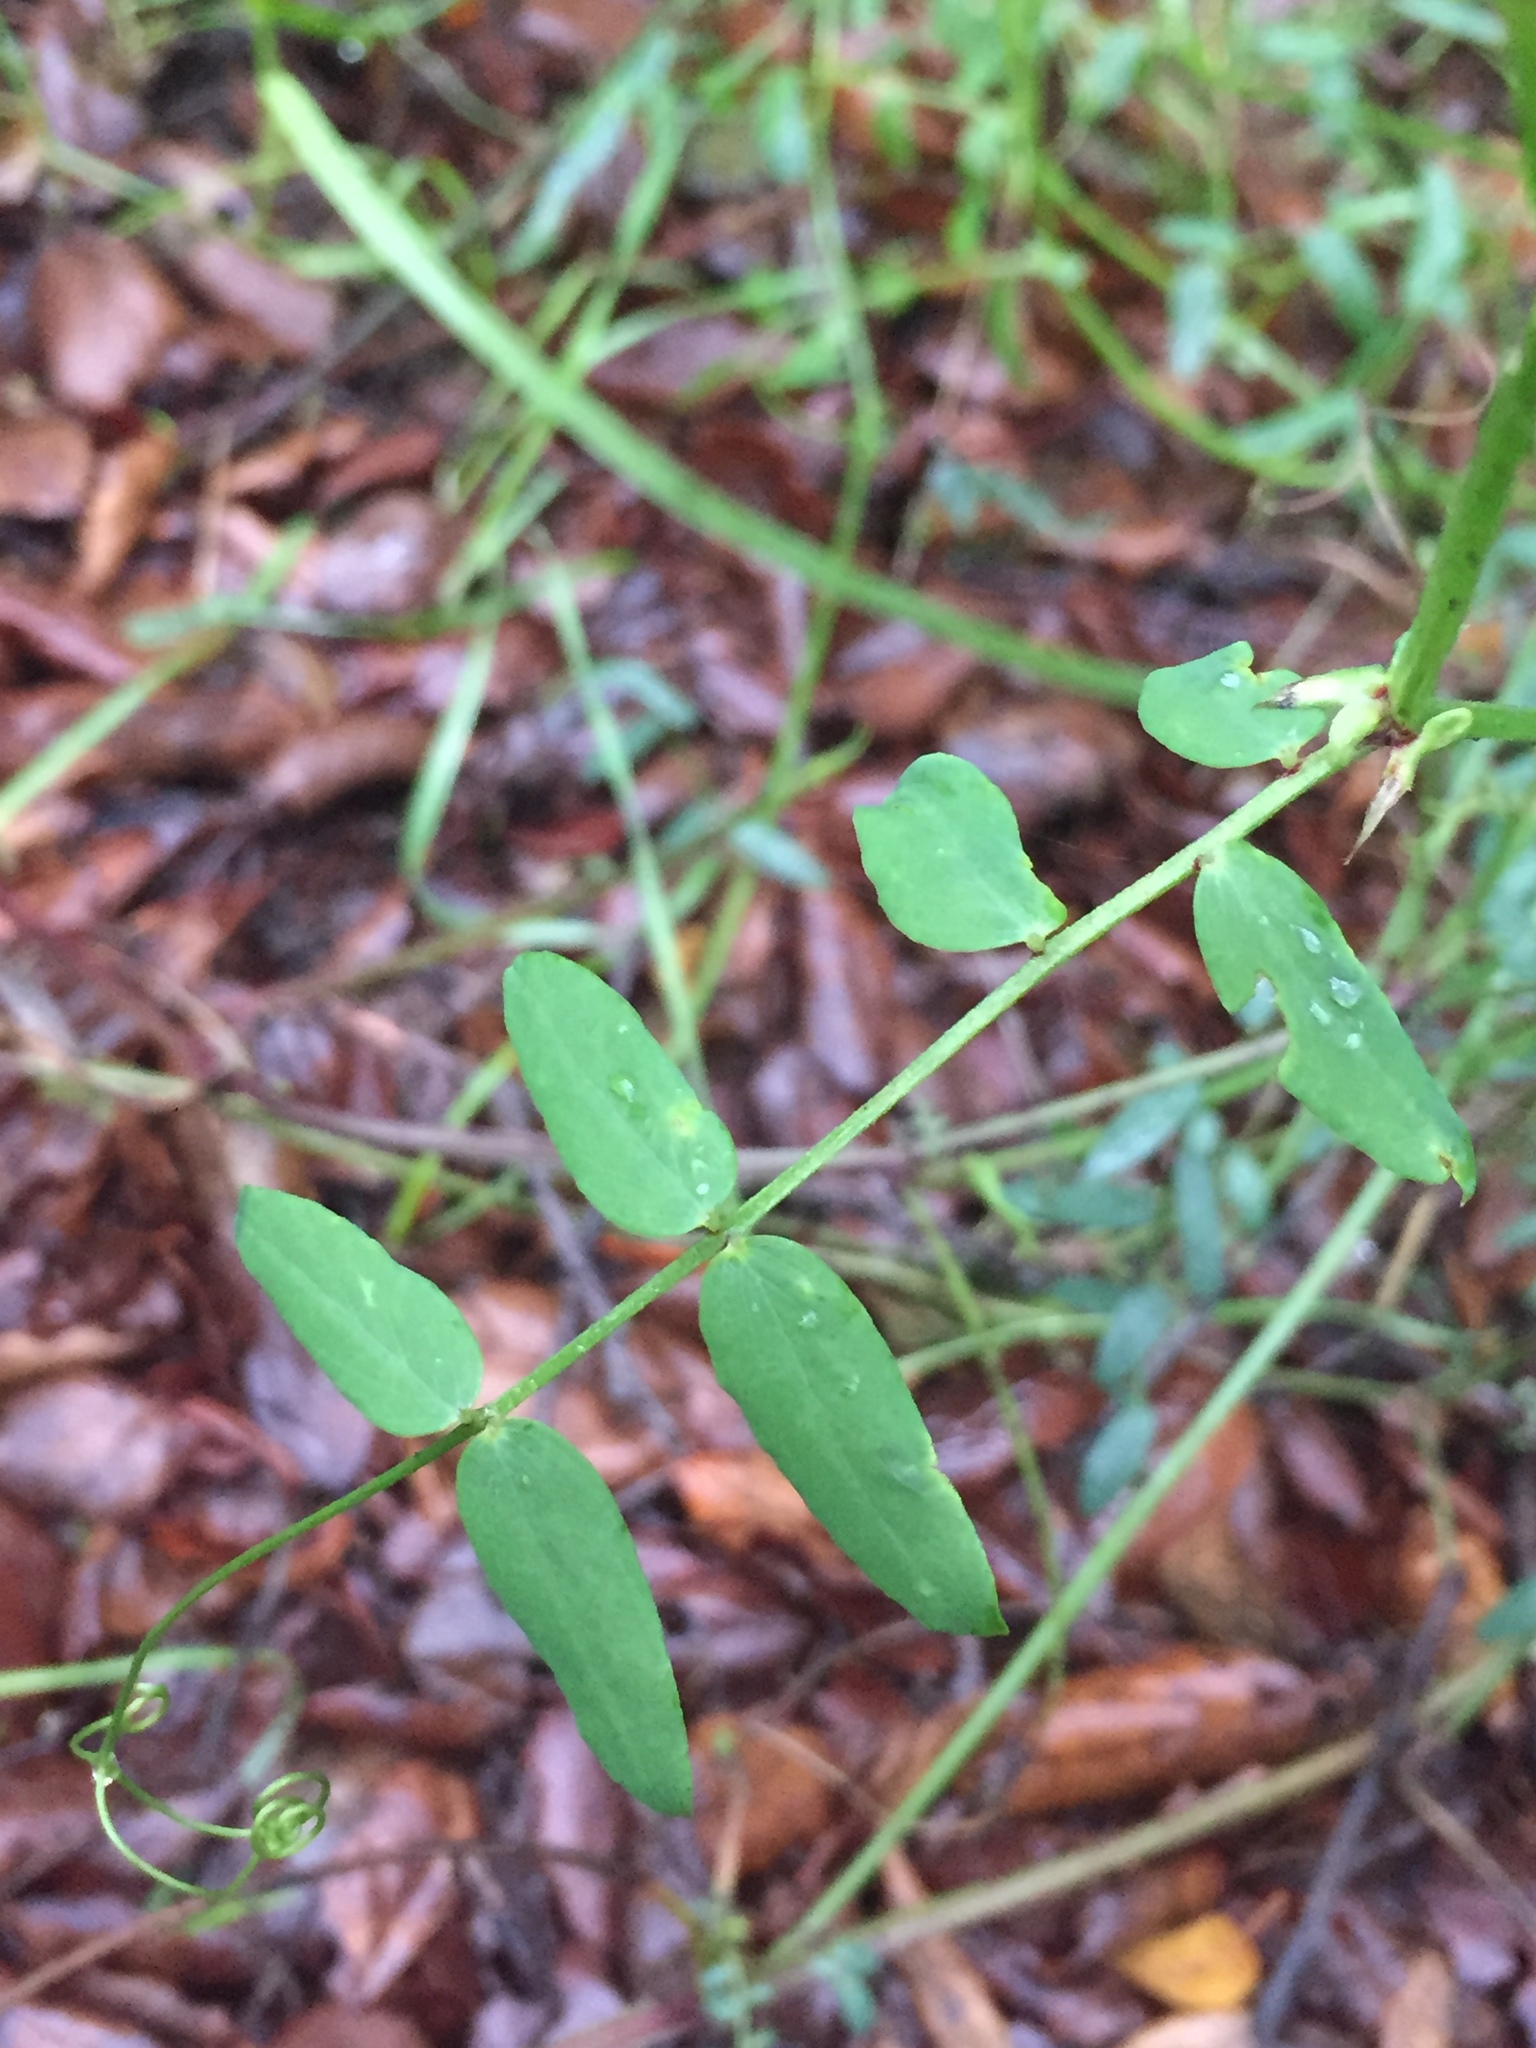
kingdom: Plantae
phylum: Tracheophyta
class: Magnoliopsida
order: Fabales
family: Fabaceae
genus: Lathyrus
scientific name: Lathyrus vestitus
